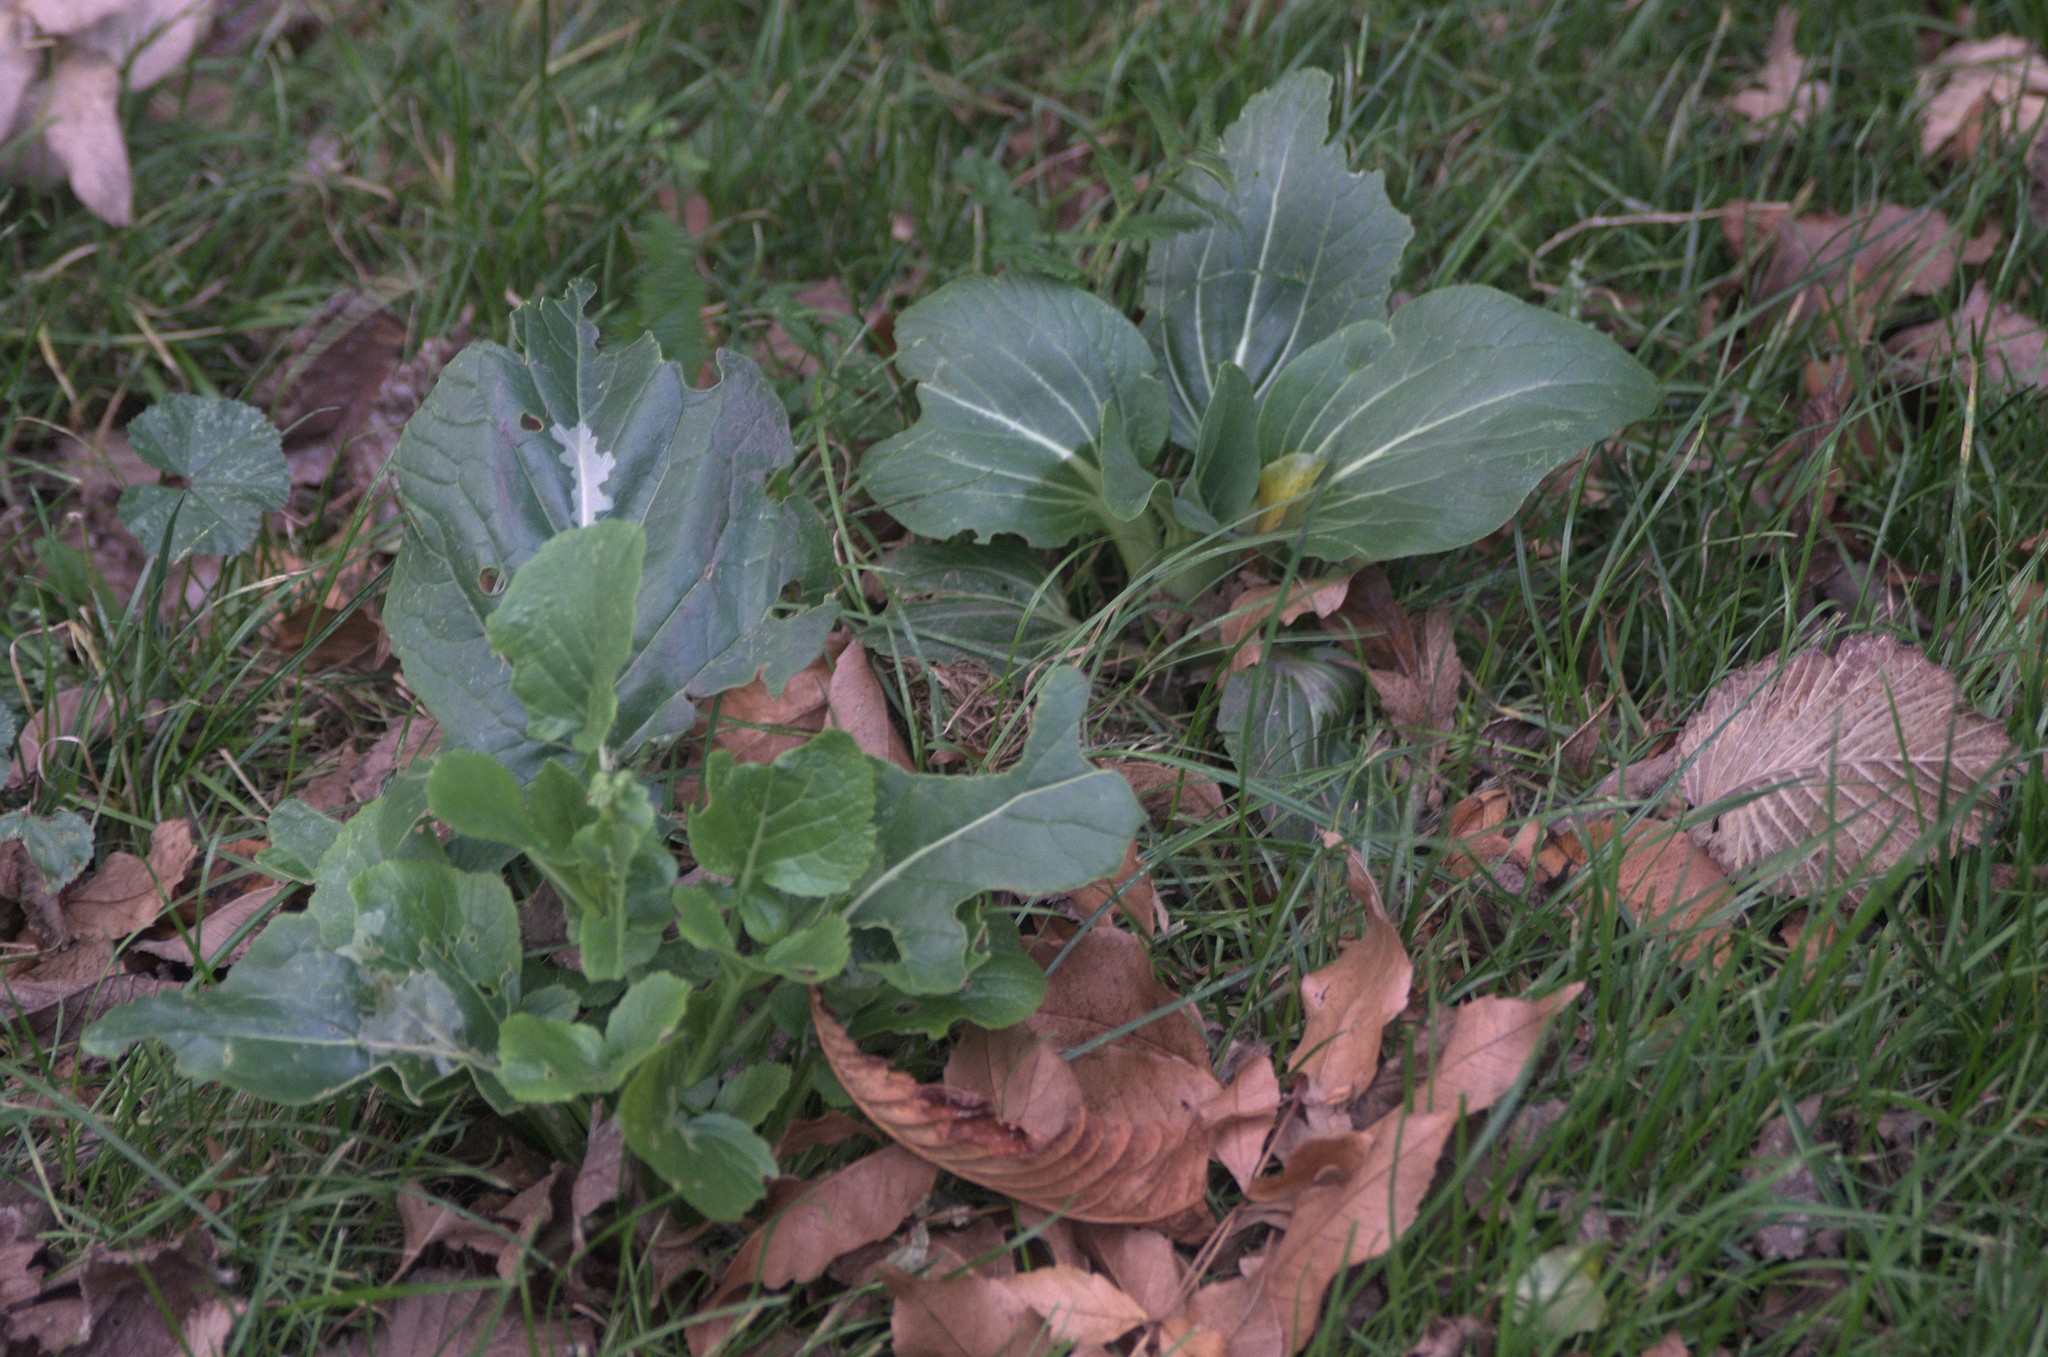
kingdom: Plantae
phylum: Tracheophyta
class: Magnoliopsida
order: Brassicales
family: Brassicaceae
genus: Brassica
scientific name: Brassica rapa
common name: Field mustard
